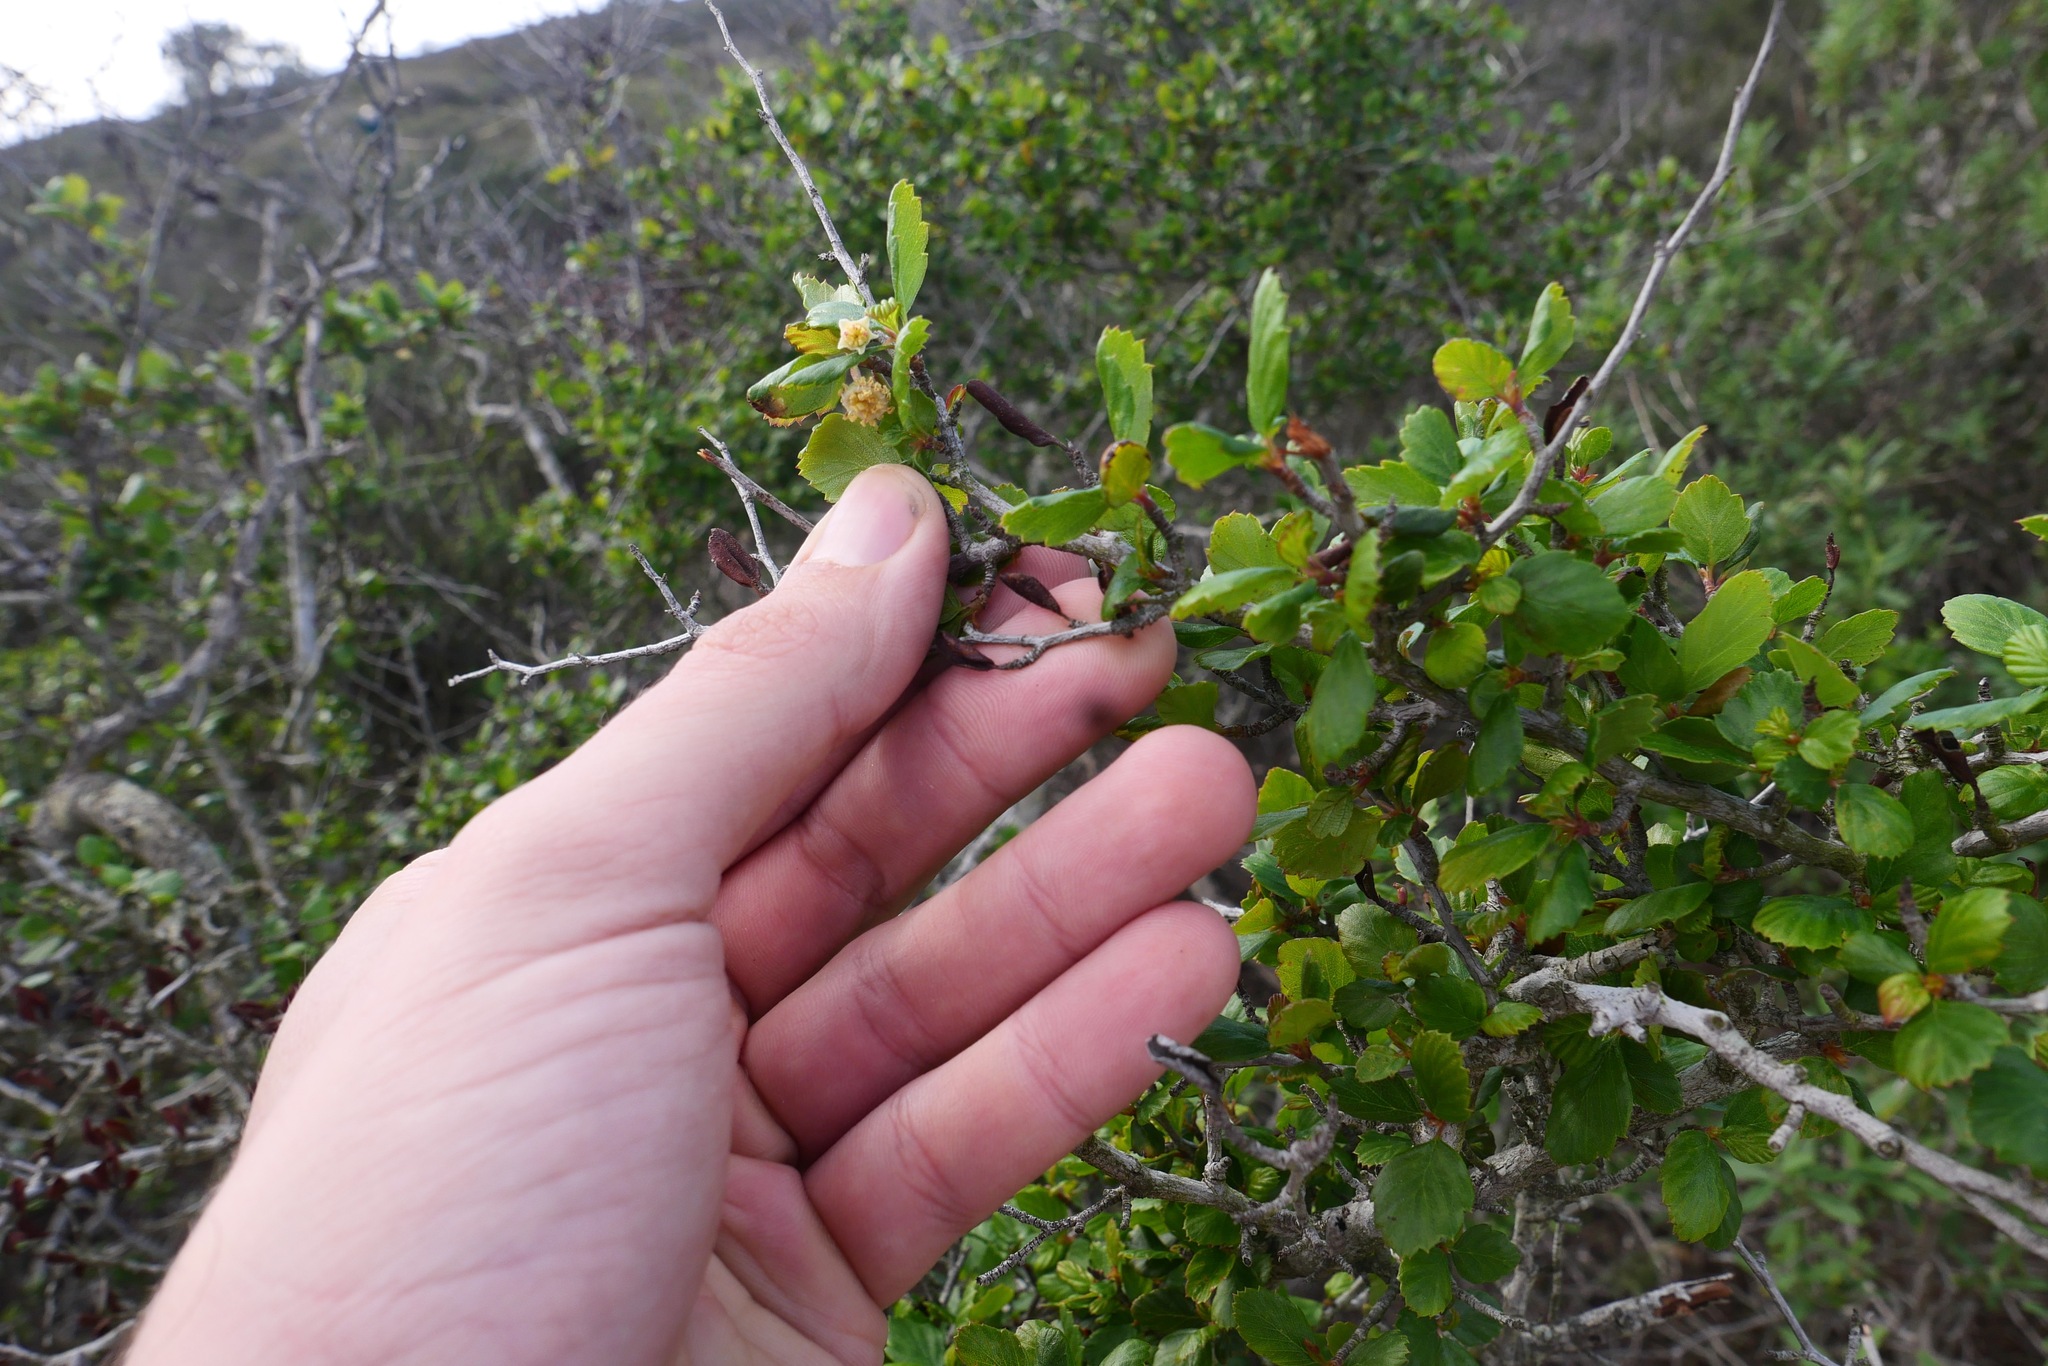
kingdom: Plantae
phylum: Tracheophyta
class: Magnoliopsida
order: Rosales
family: Rosaceae
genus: Cercocarpus
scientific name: Cercocarpus montanus
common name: Alder-leaf cercocarpus
